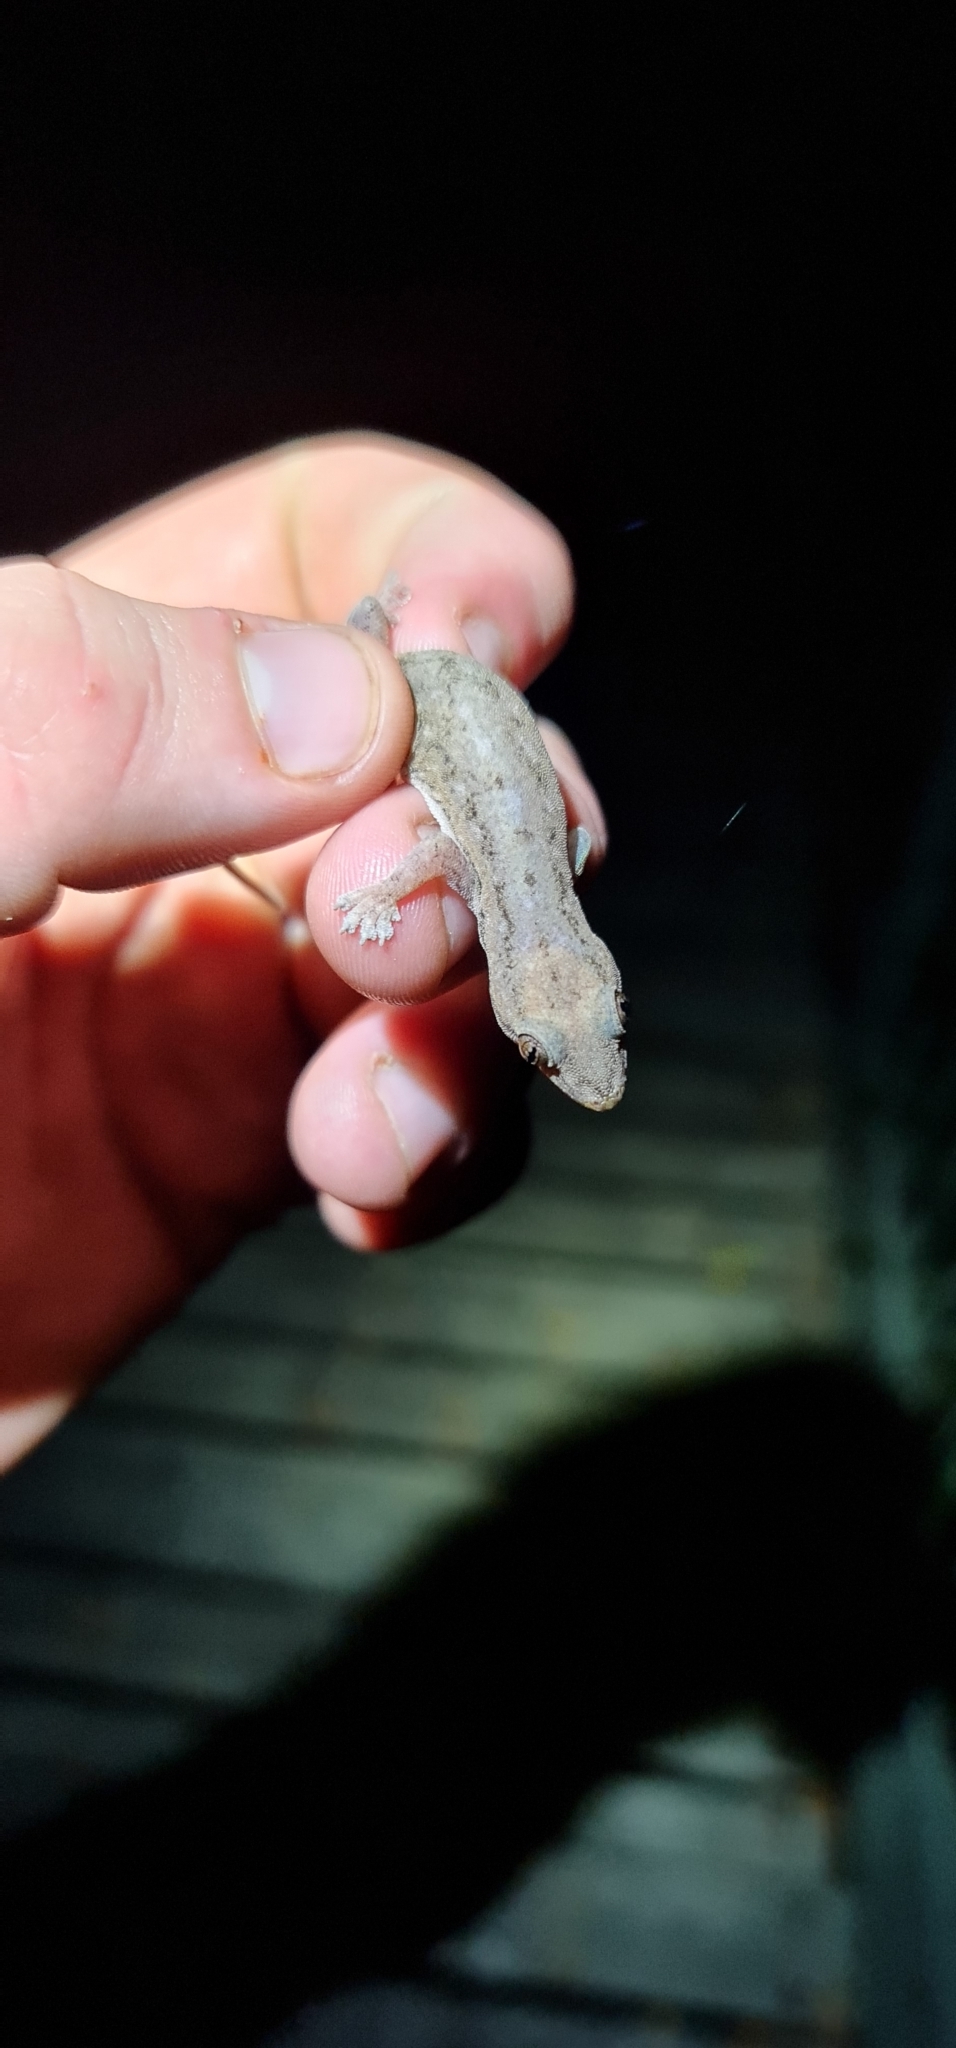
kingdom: Animalia
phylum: Chordata
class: Squamata
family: Gekkonidae
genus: Hemidactylus
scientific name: Hemidactylus frenatus
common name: Common house gecko
